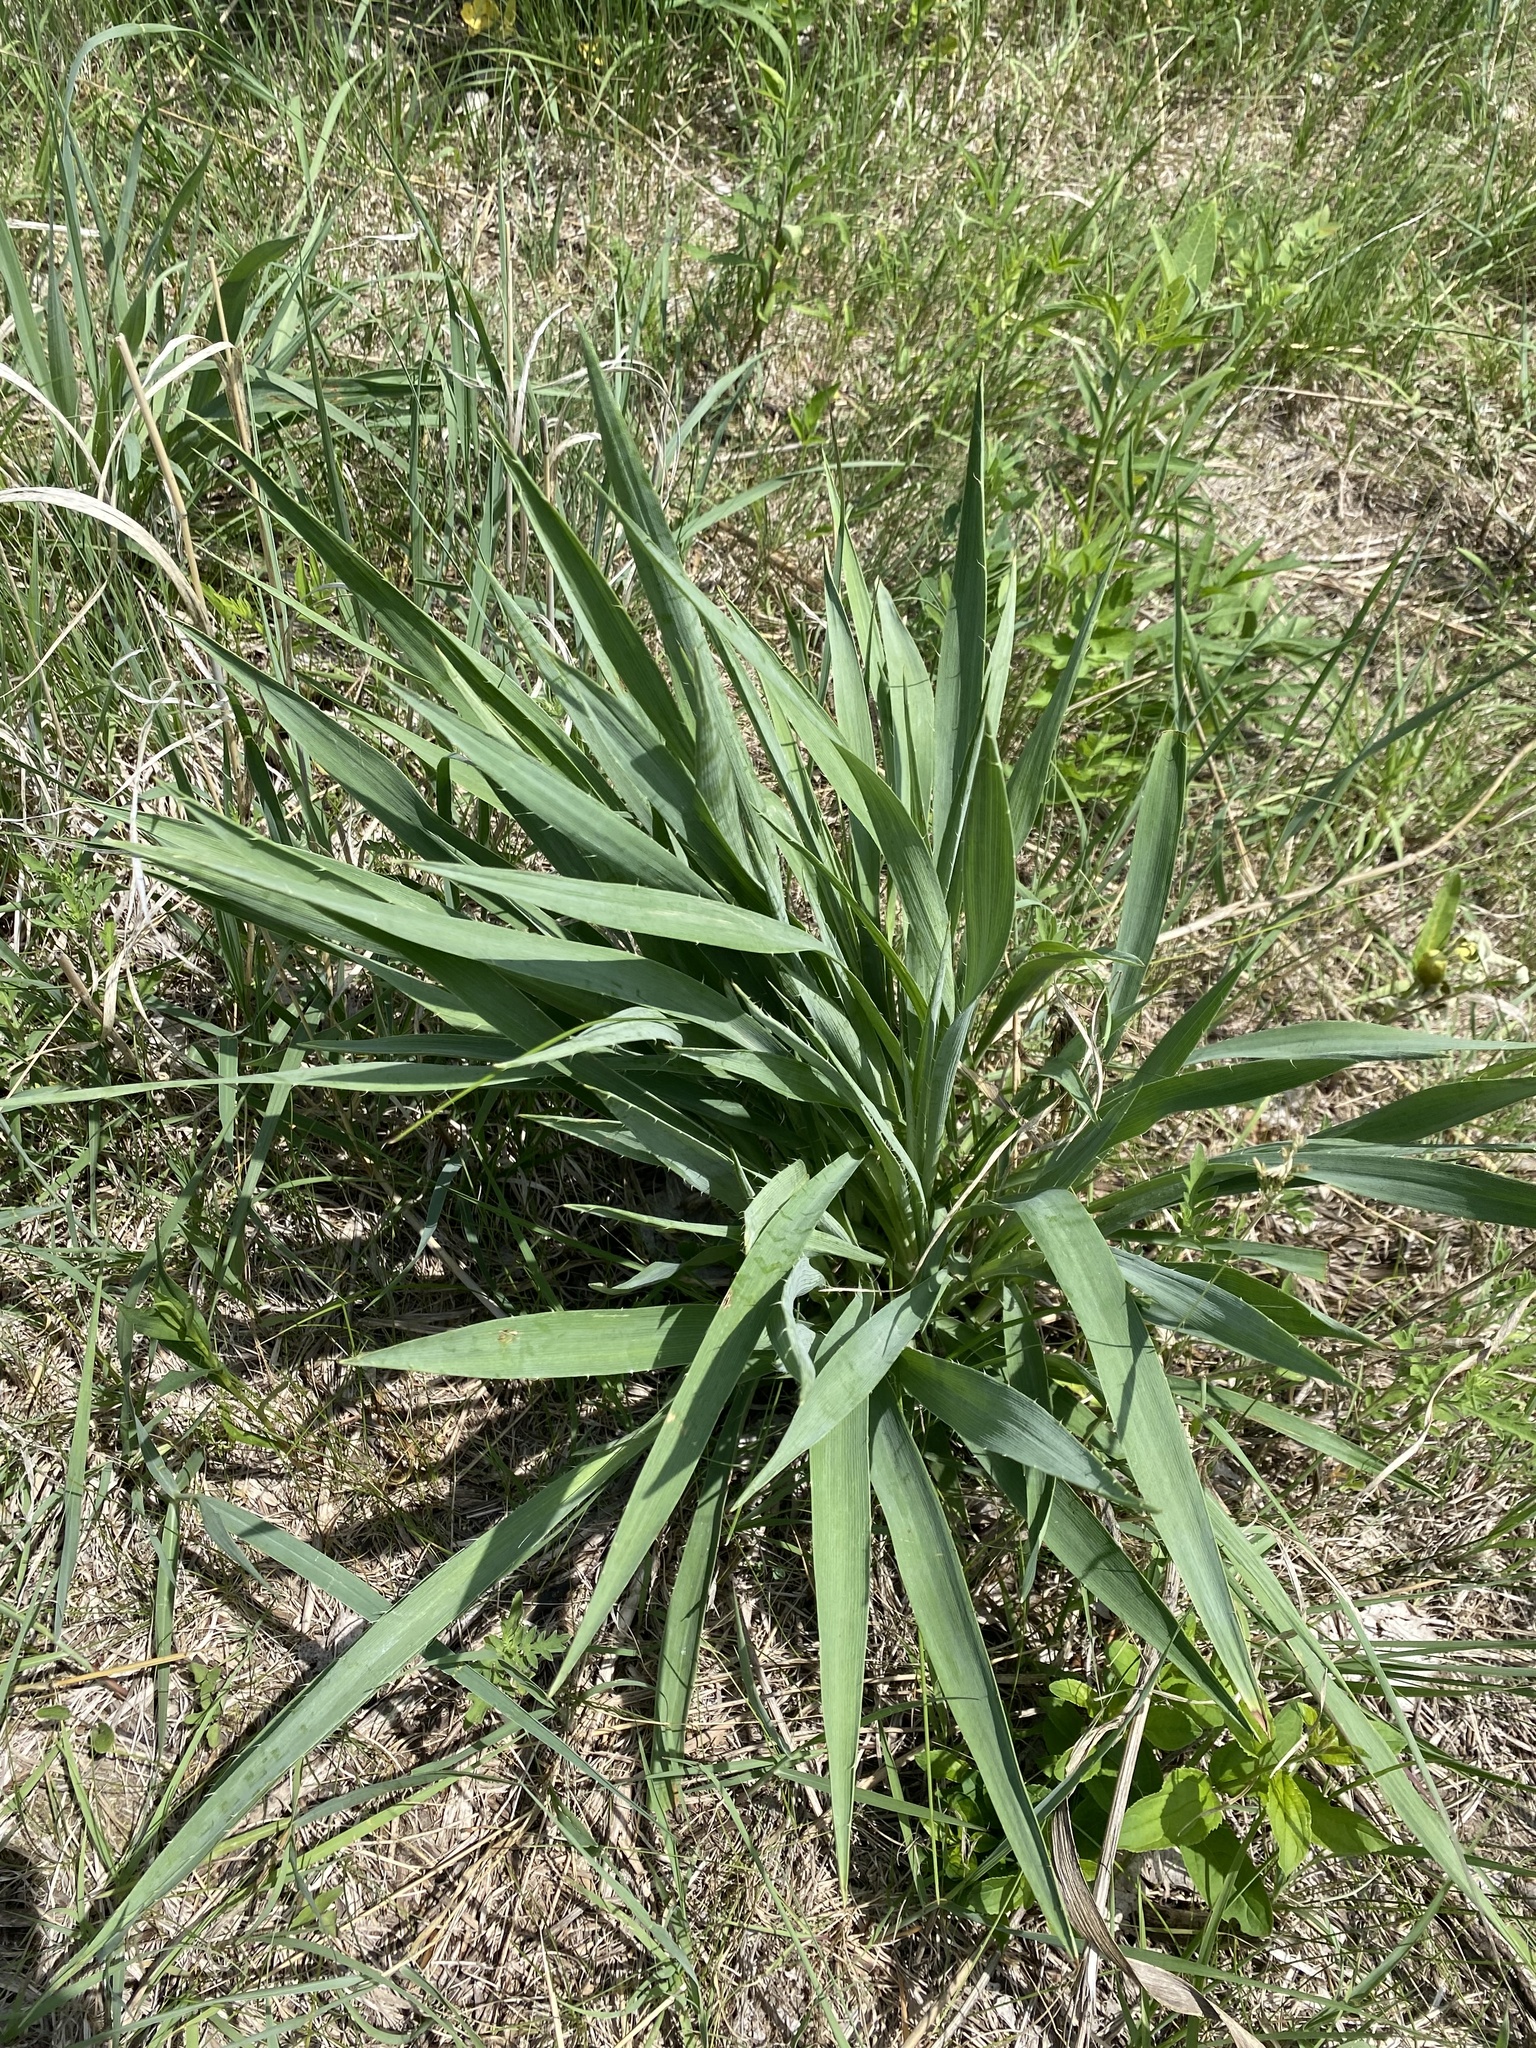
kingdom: Plantae
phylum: Tracheophyta
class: Magnoliopsida
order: Apiales
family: Apiaceae
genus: Eryngium
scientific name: Eryngium yuccifolium
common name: Button eryngo
